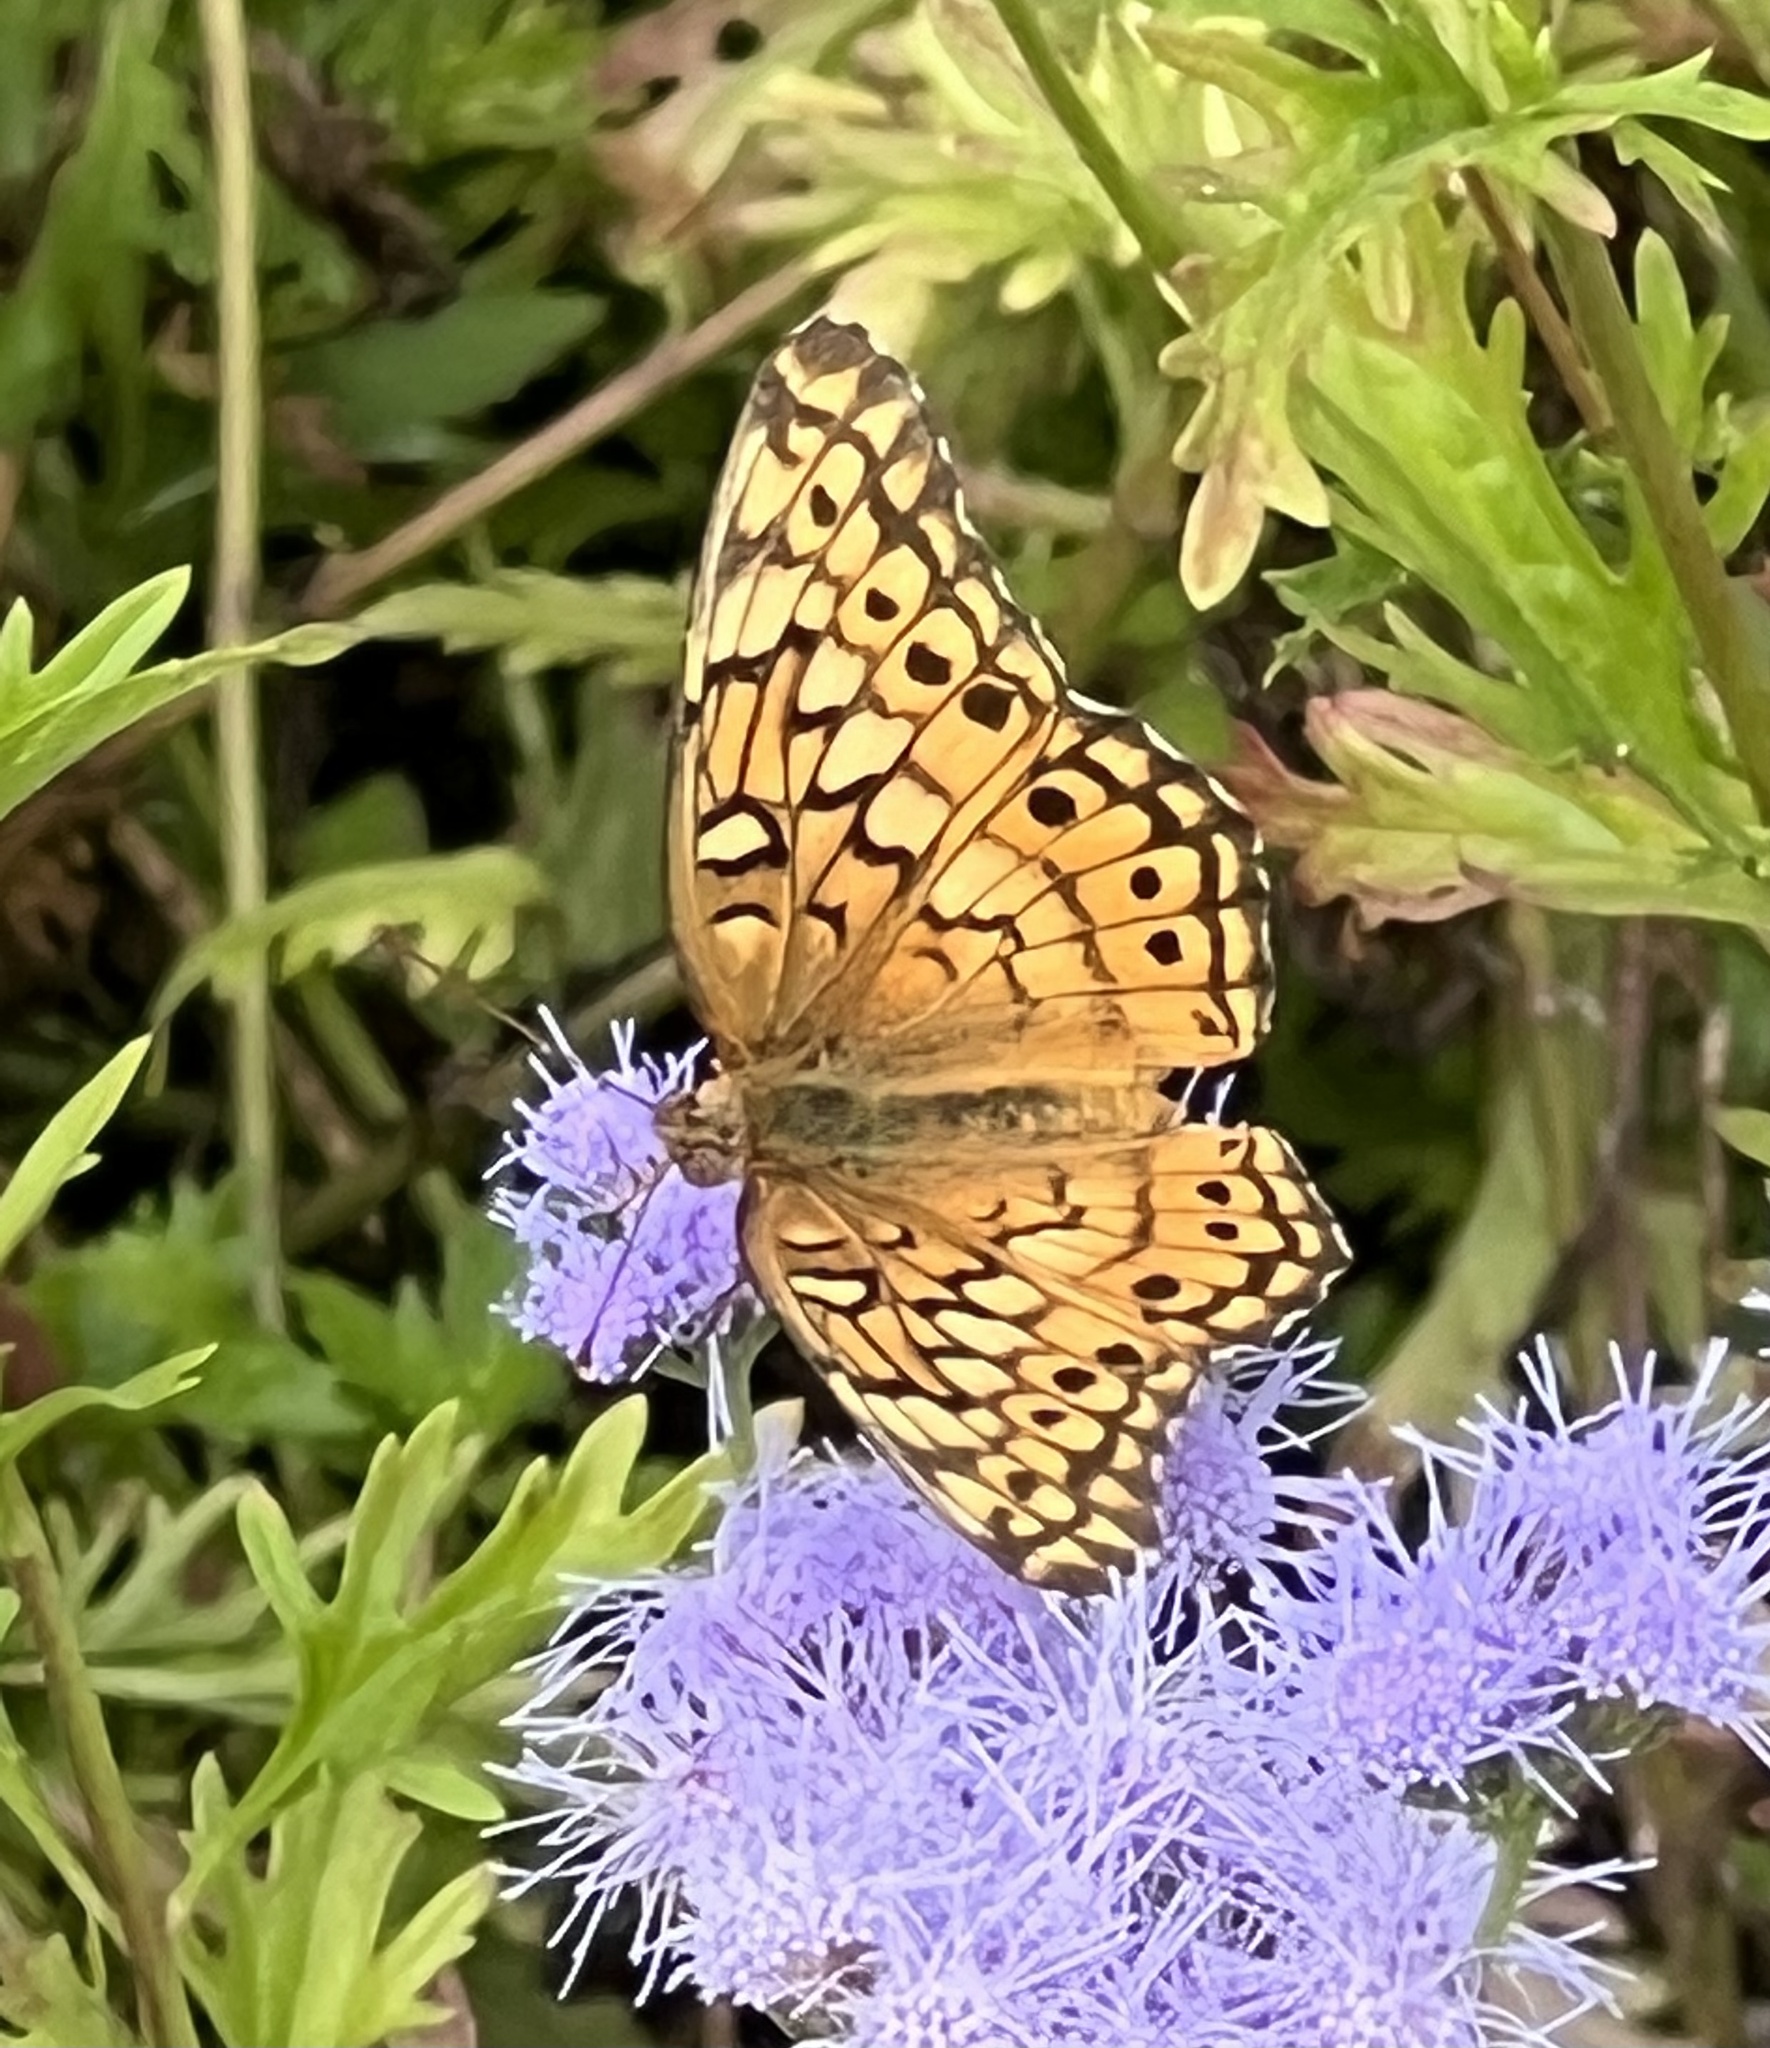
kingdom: Animalia
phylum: Arthropoda
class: Insecta
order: Lepidoptera
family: Nymphalidae
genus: Euptoieta
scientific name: Euptoieta claudia
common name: Variegated fritillary
